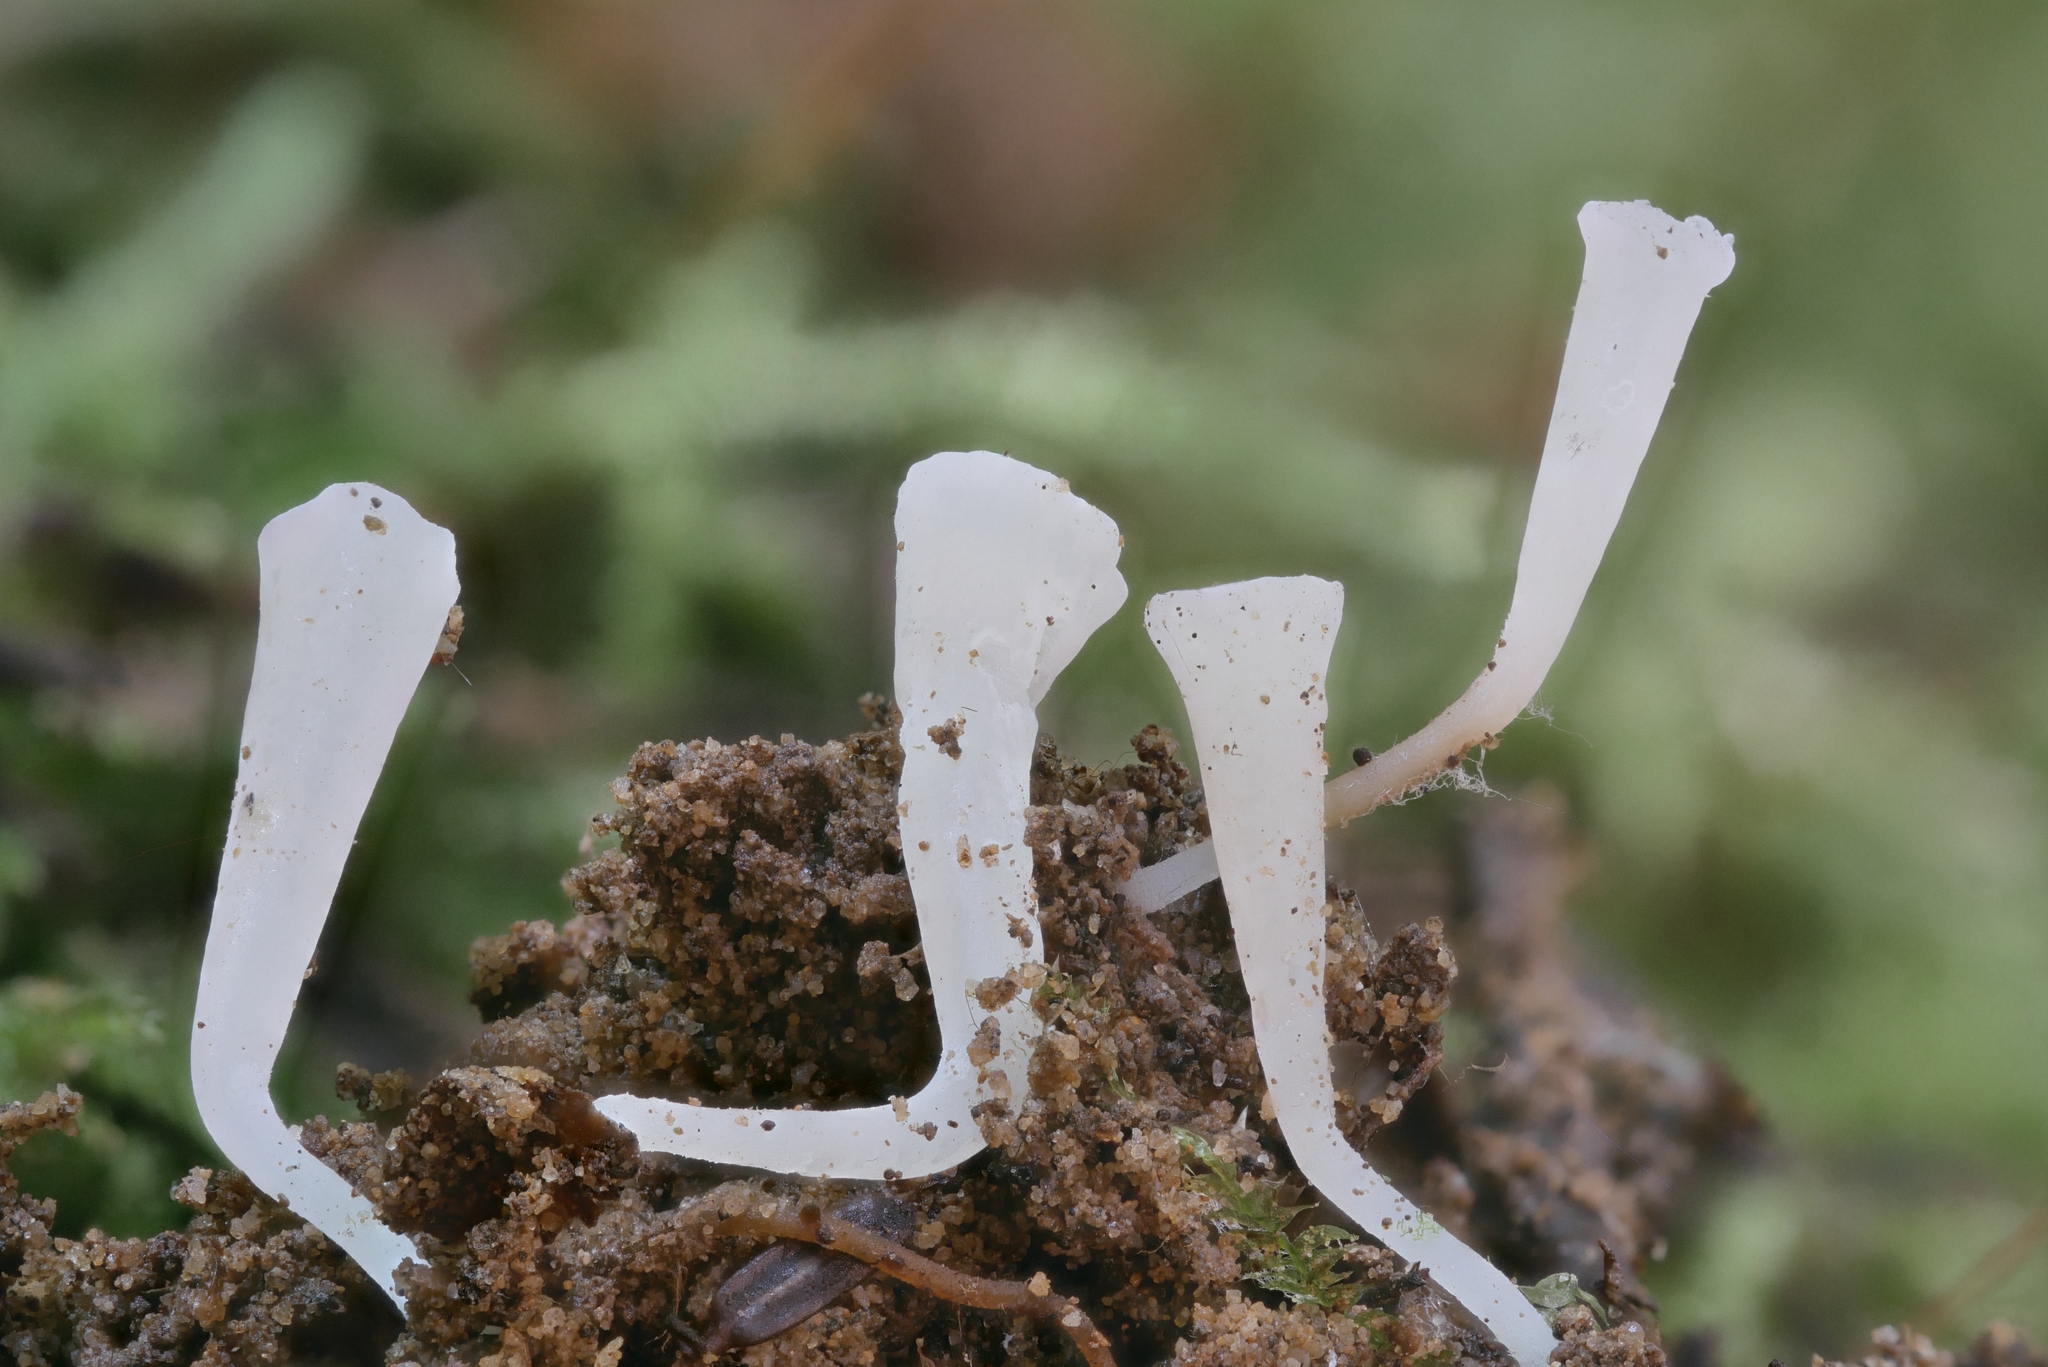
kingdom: Fungi
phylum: Basidiomycota
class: Agaricomycetes
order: Agaricales
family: Clavariaceae
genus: Clavicorona
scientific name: Clavicorona taxophila
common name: Yew club
